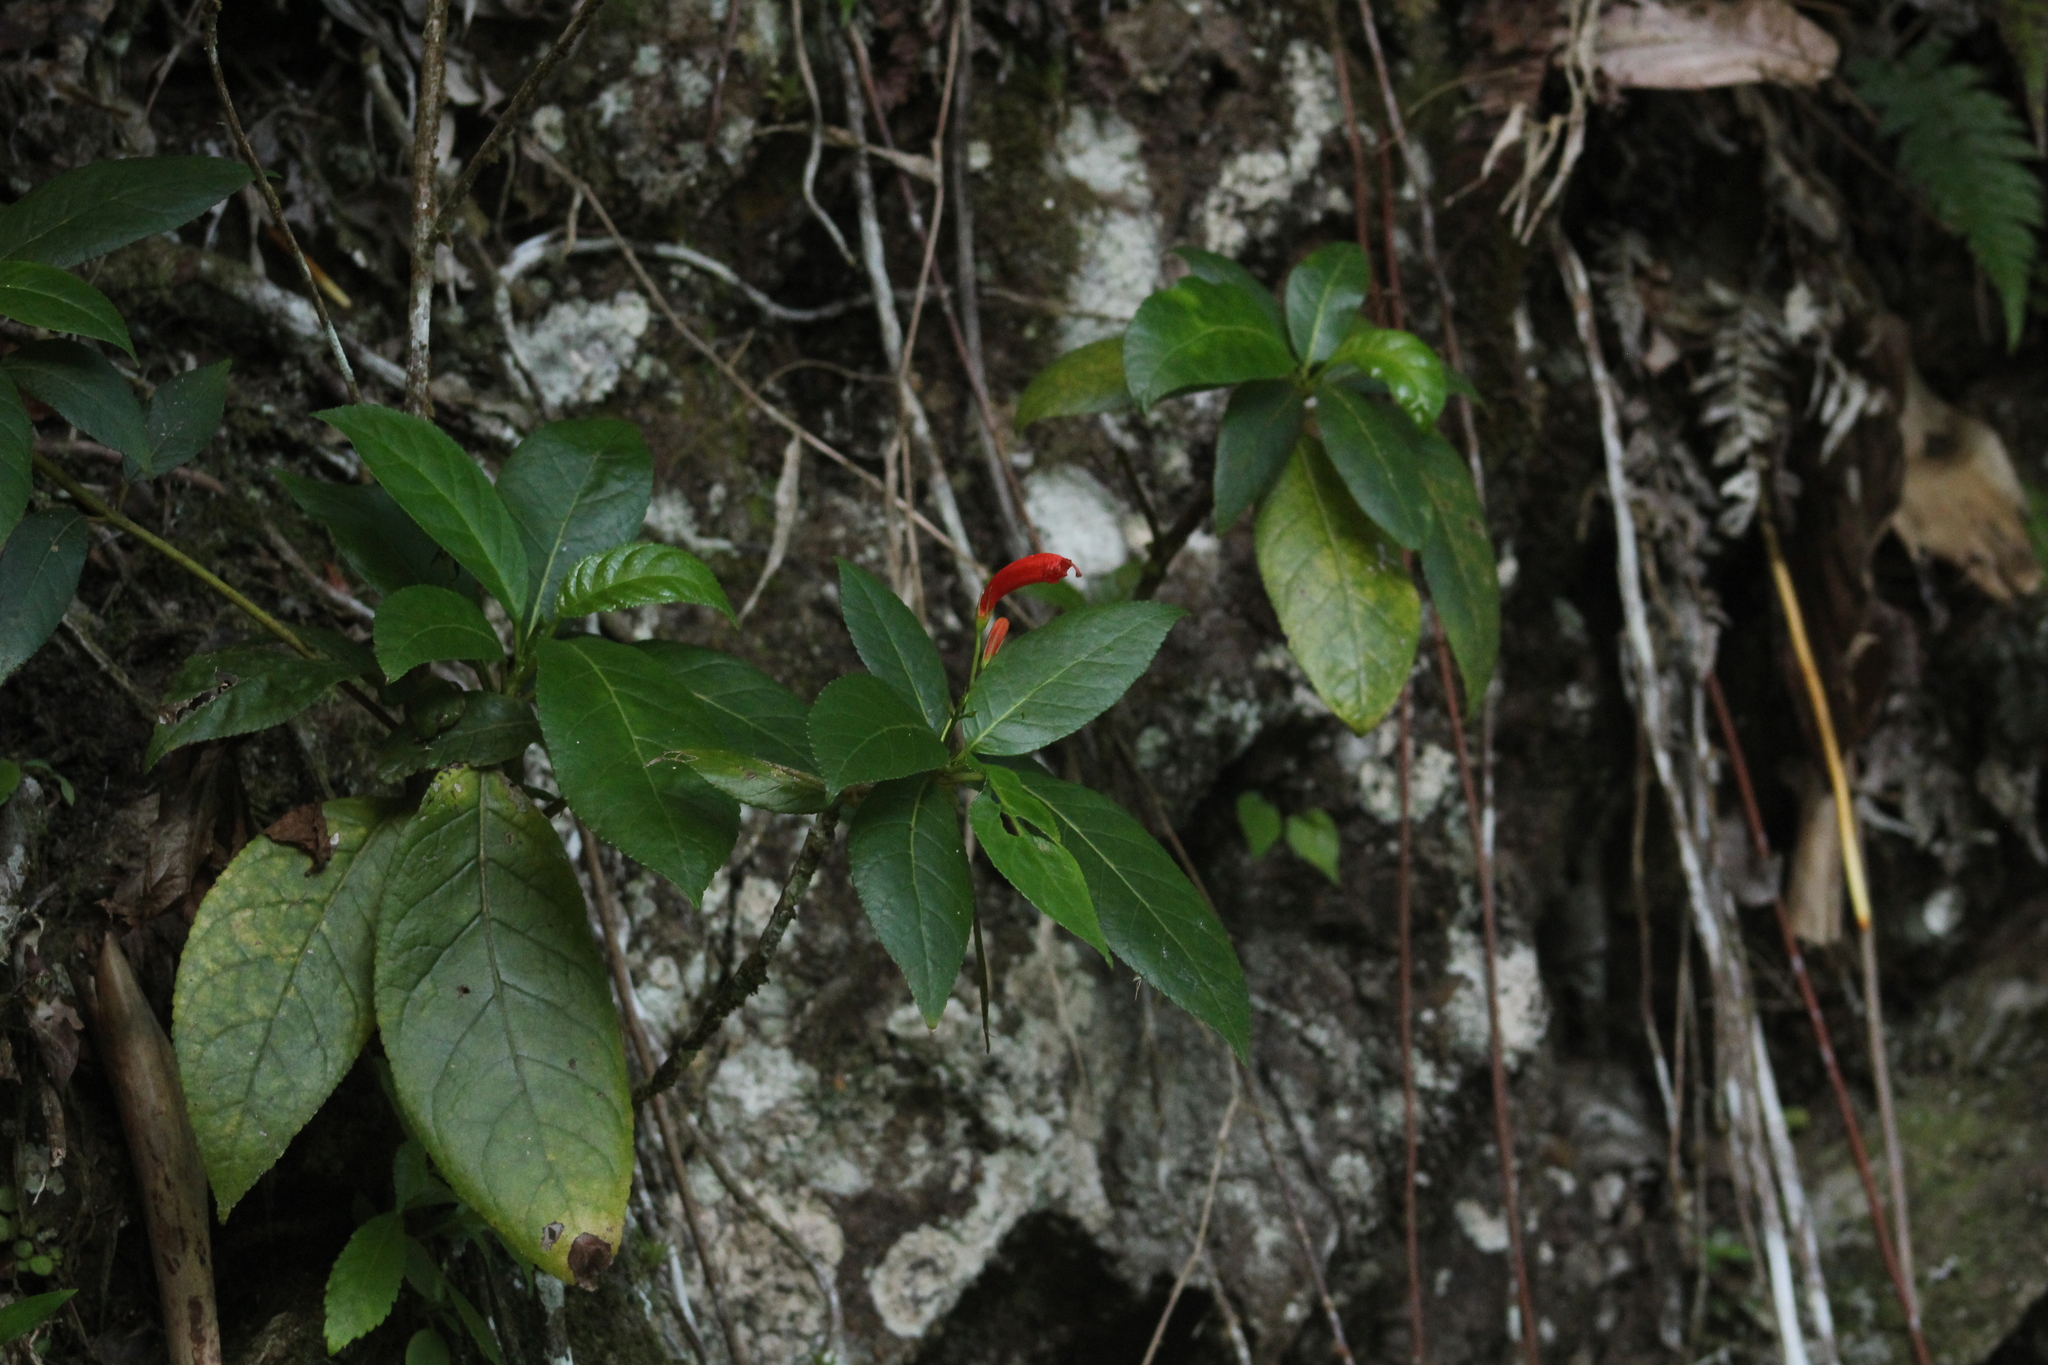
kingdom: Plantae
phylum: Tracheophyta
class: Magnoliopsida
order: Lamiales
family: Gesneriaceae
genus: Gesneria
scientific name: Gesneria ventricosa
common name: Dare meat
